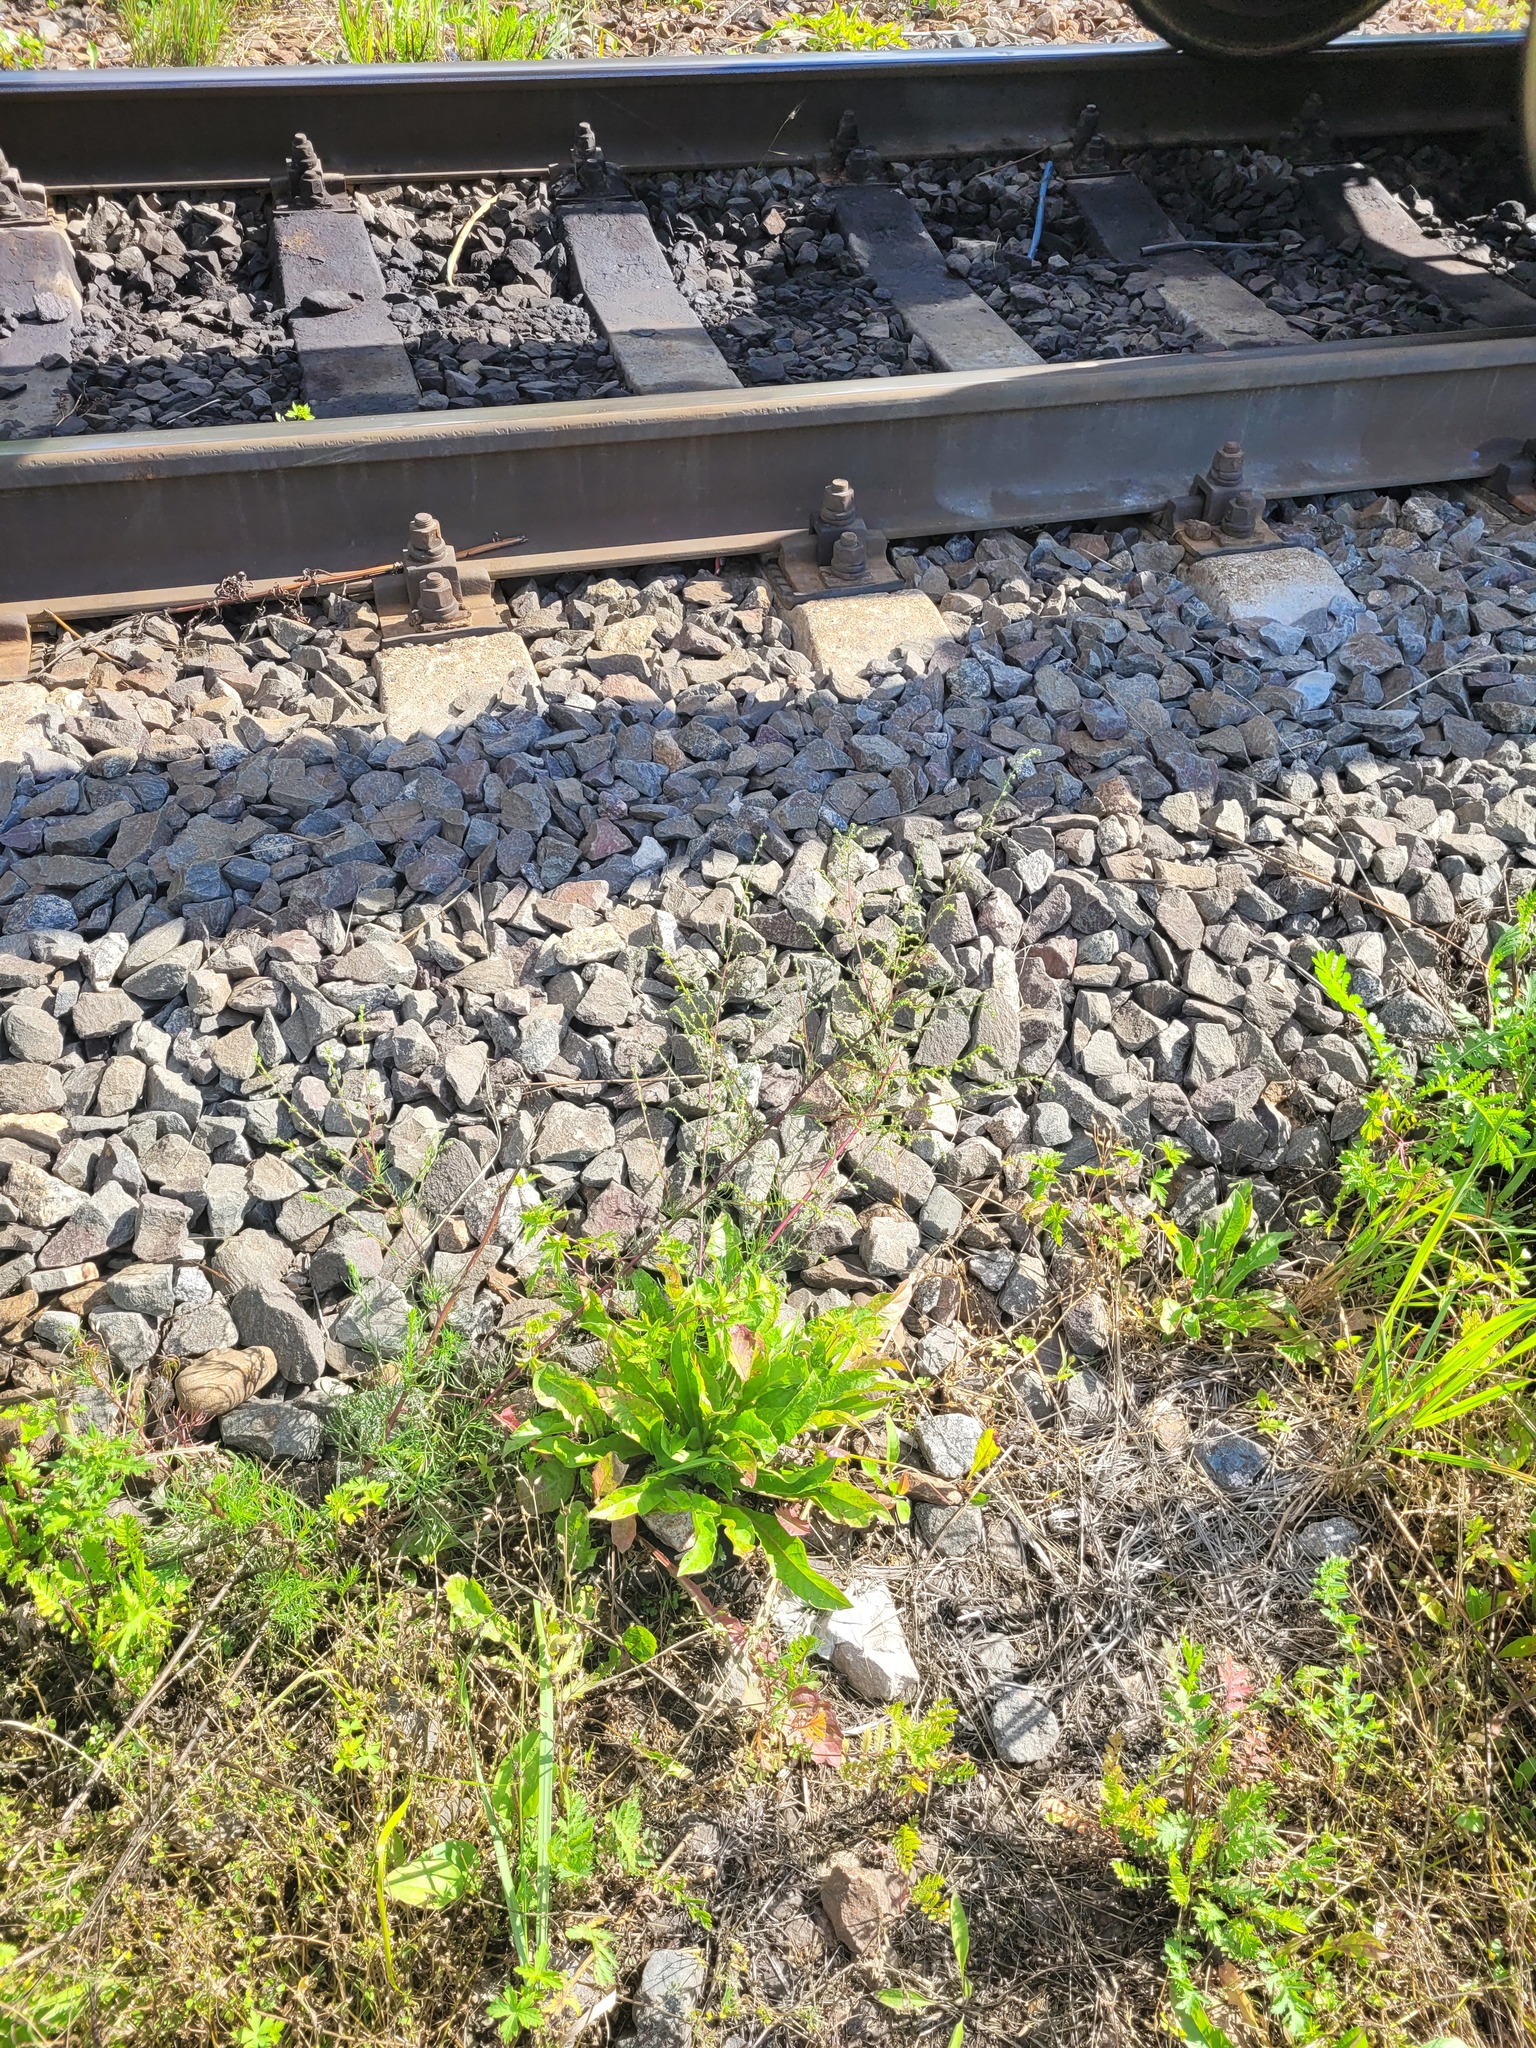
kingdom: Plantae
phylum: Tracheophyta
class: Magnoliopsida
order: Asterales
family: Asteraceae
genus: Artemisia
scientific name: Artemisia campestris
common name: Field wormwood
